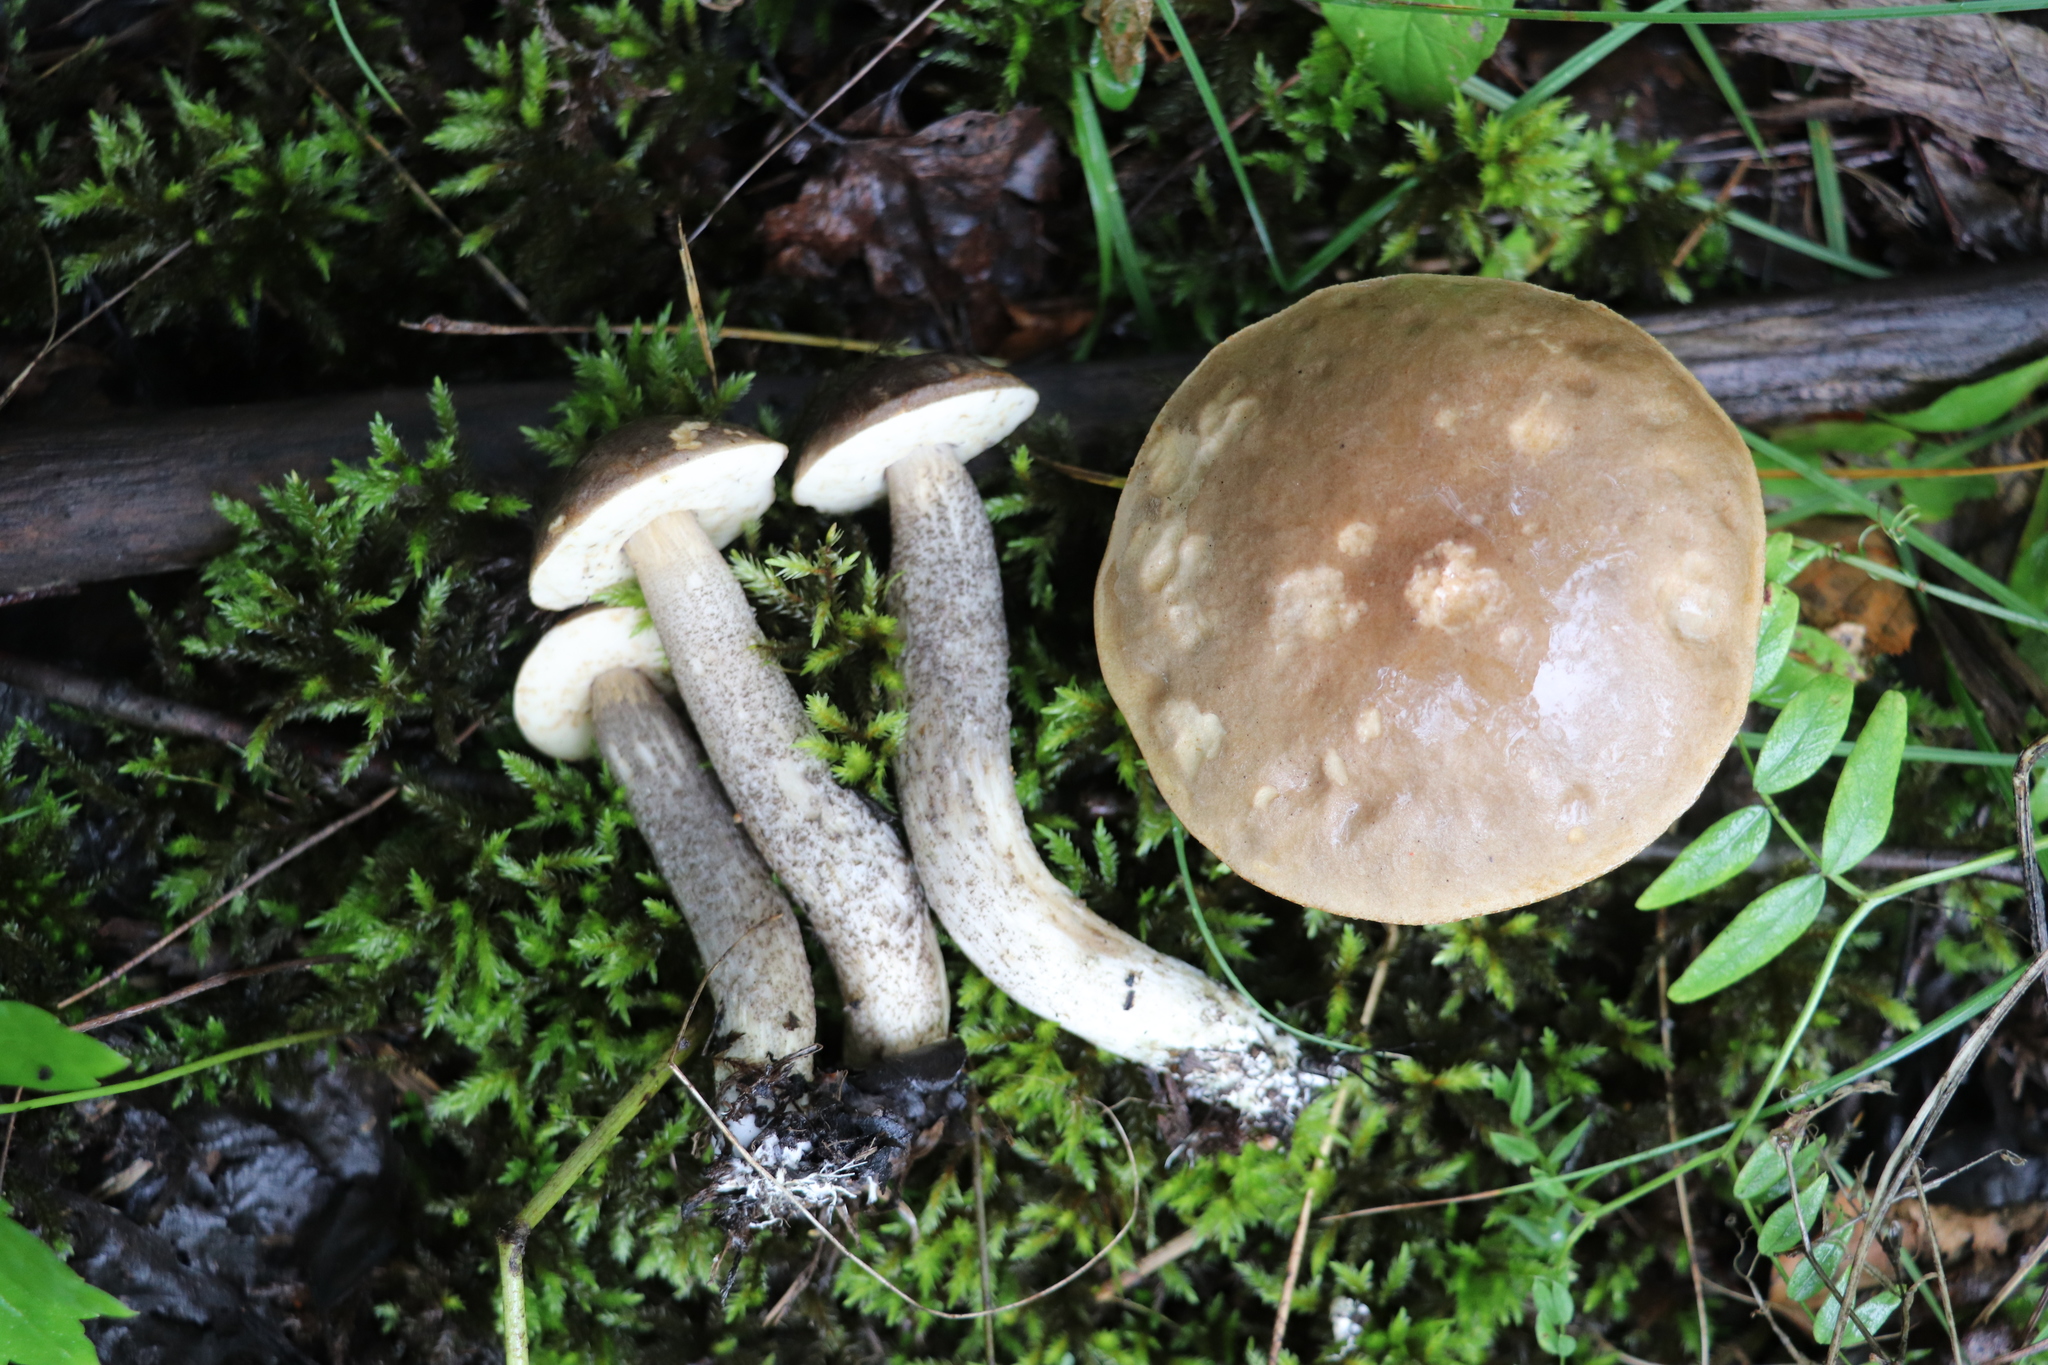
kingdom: Fungi
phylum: Basidiomycota
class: Agaricomycetes
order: Boletales
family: Boletaceae
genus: Leccinum
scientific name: Leccinum scabrum
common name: Blushing bolete
